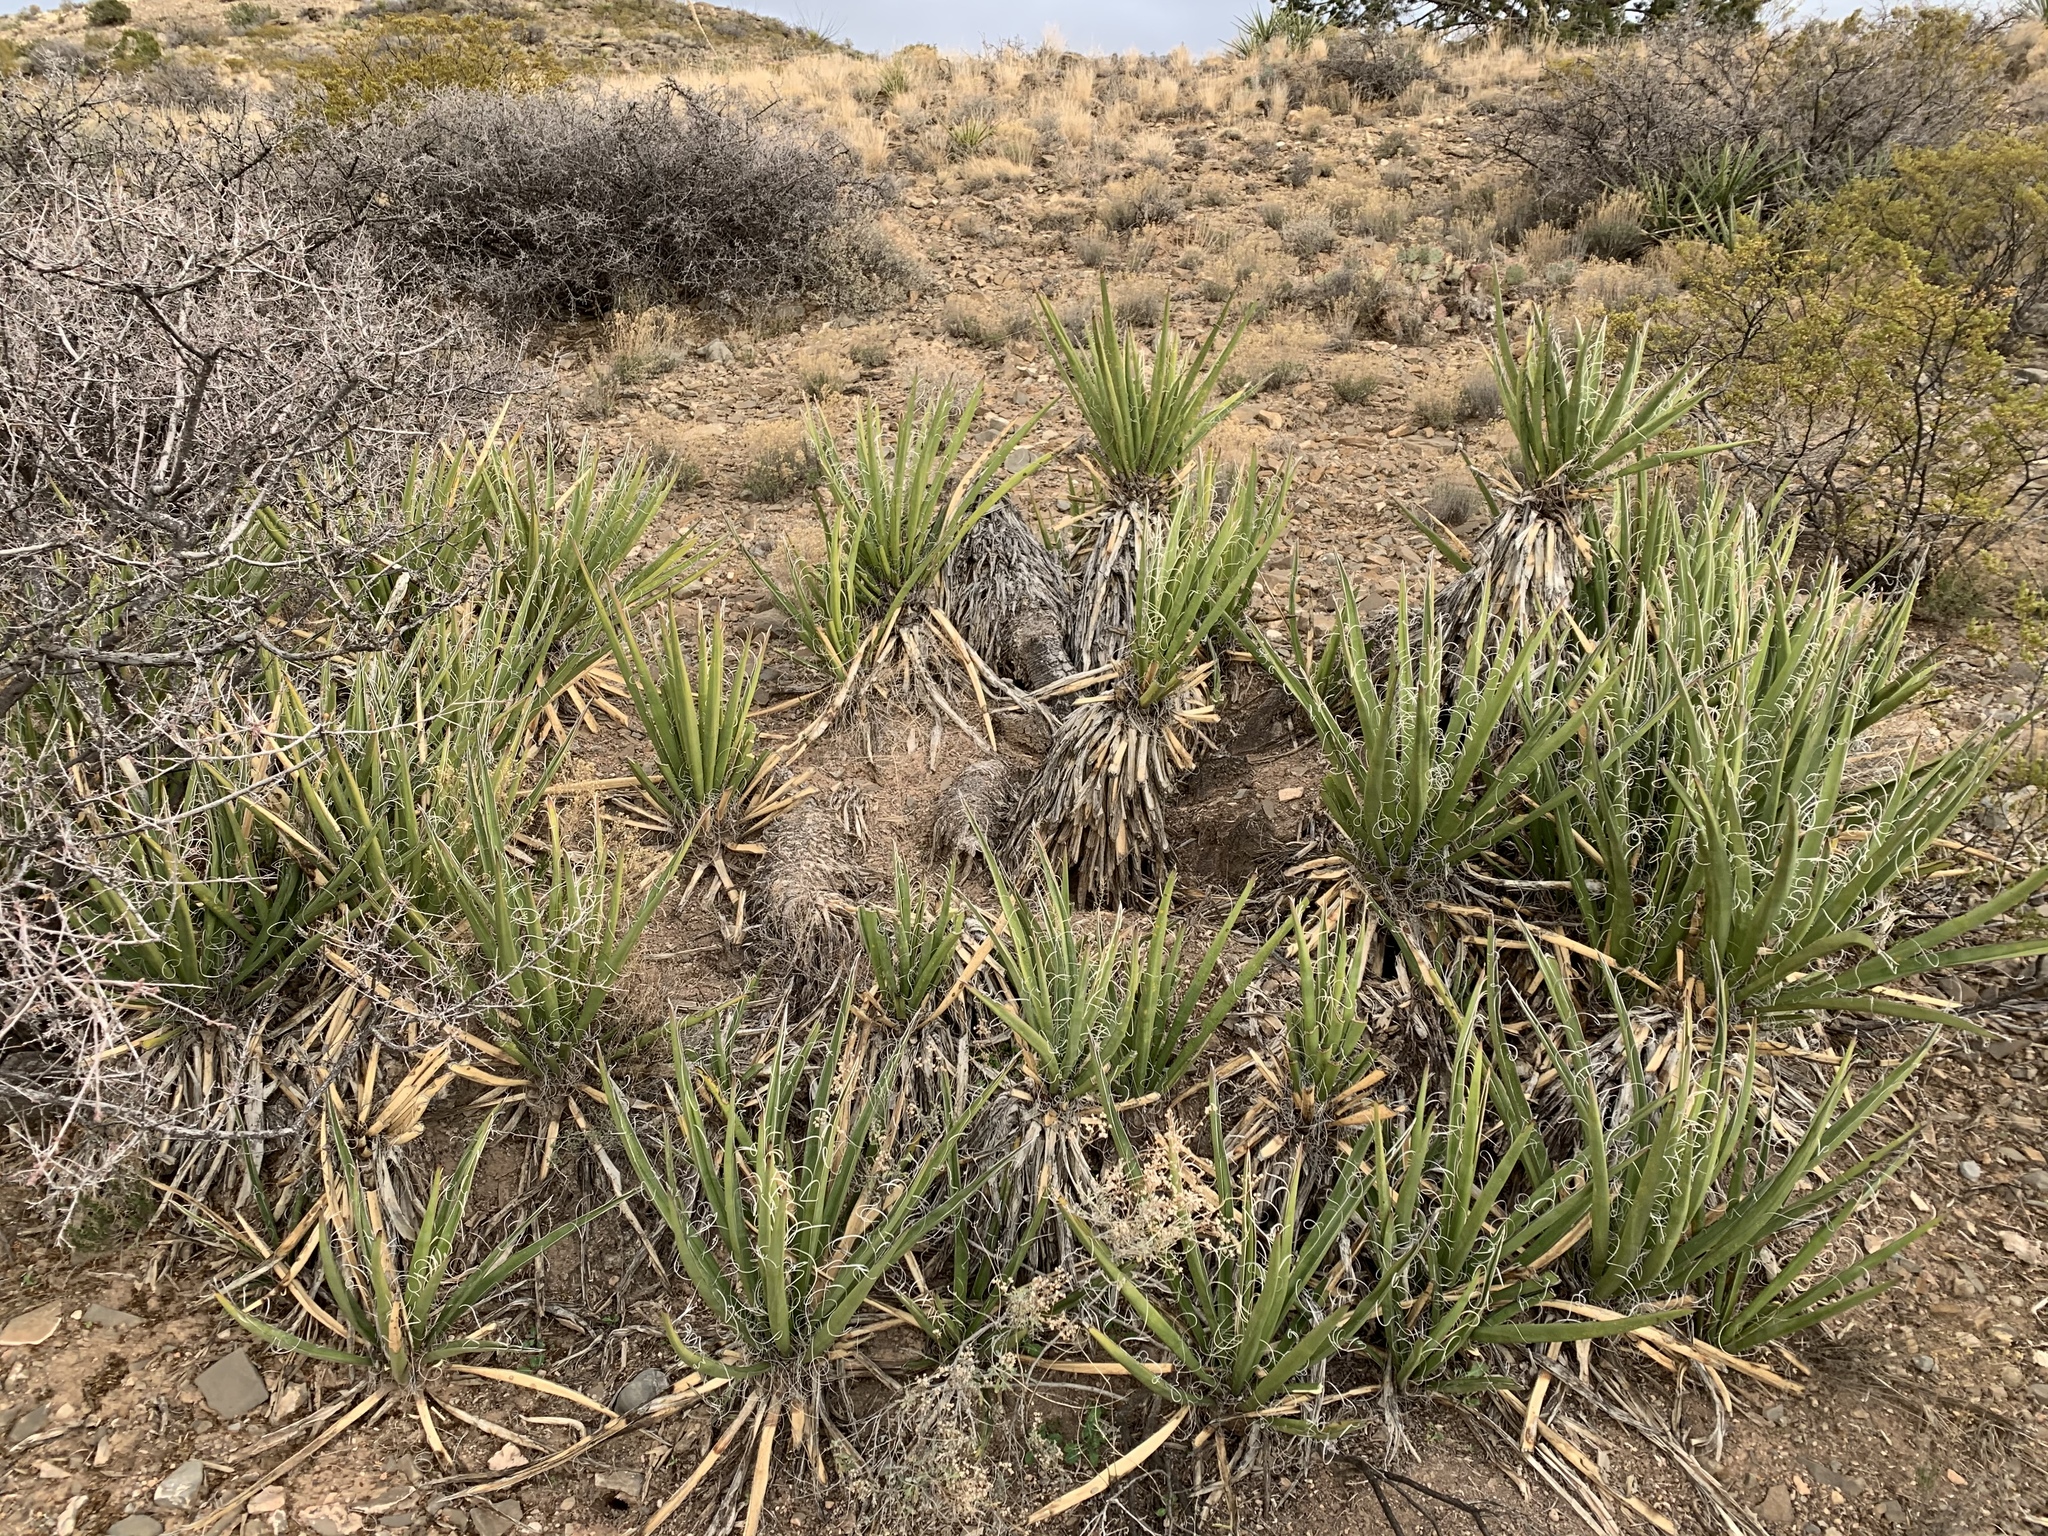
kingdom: Plantae
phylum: Tracheophyta
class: Liliopsida
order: Asparagales
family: Asparagaceae
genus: Yucca
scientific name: Yucca baccata
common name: Banana yucca
